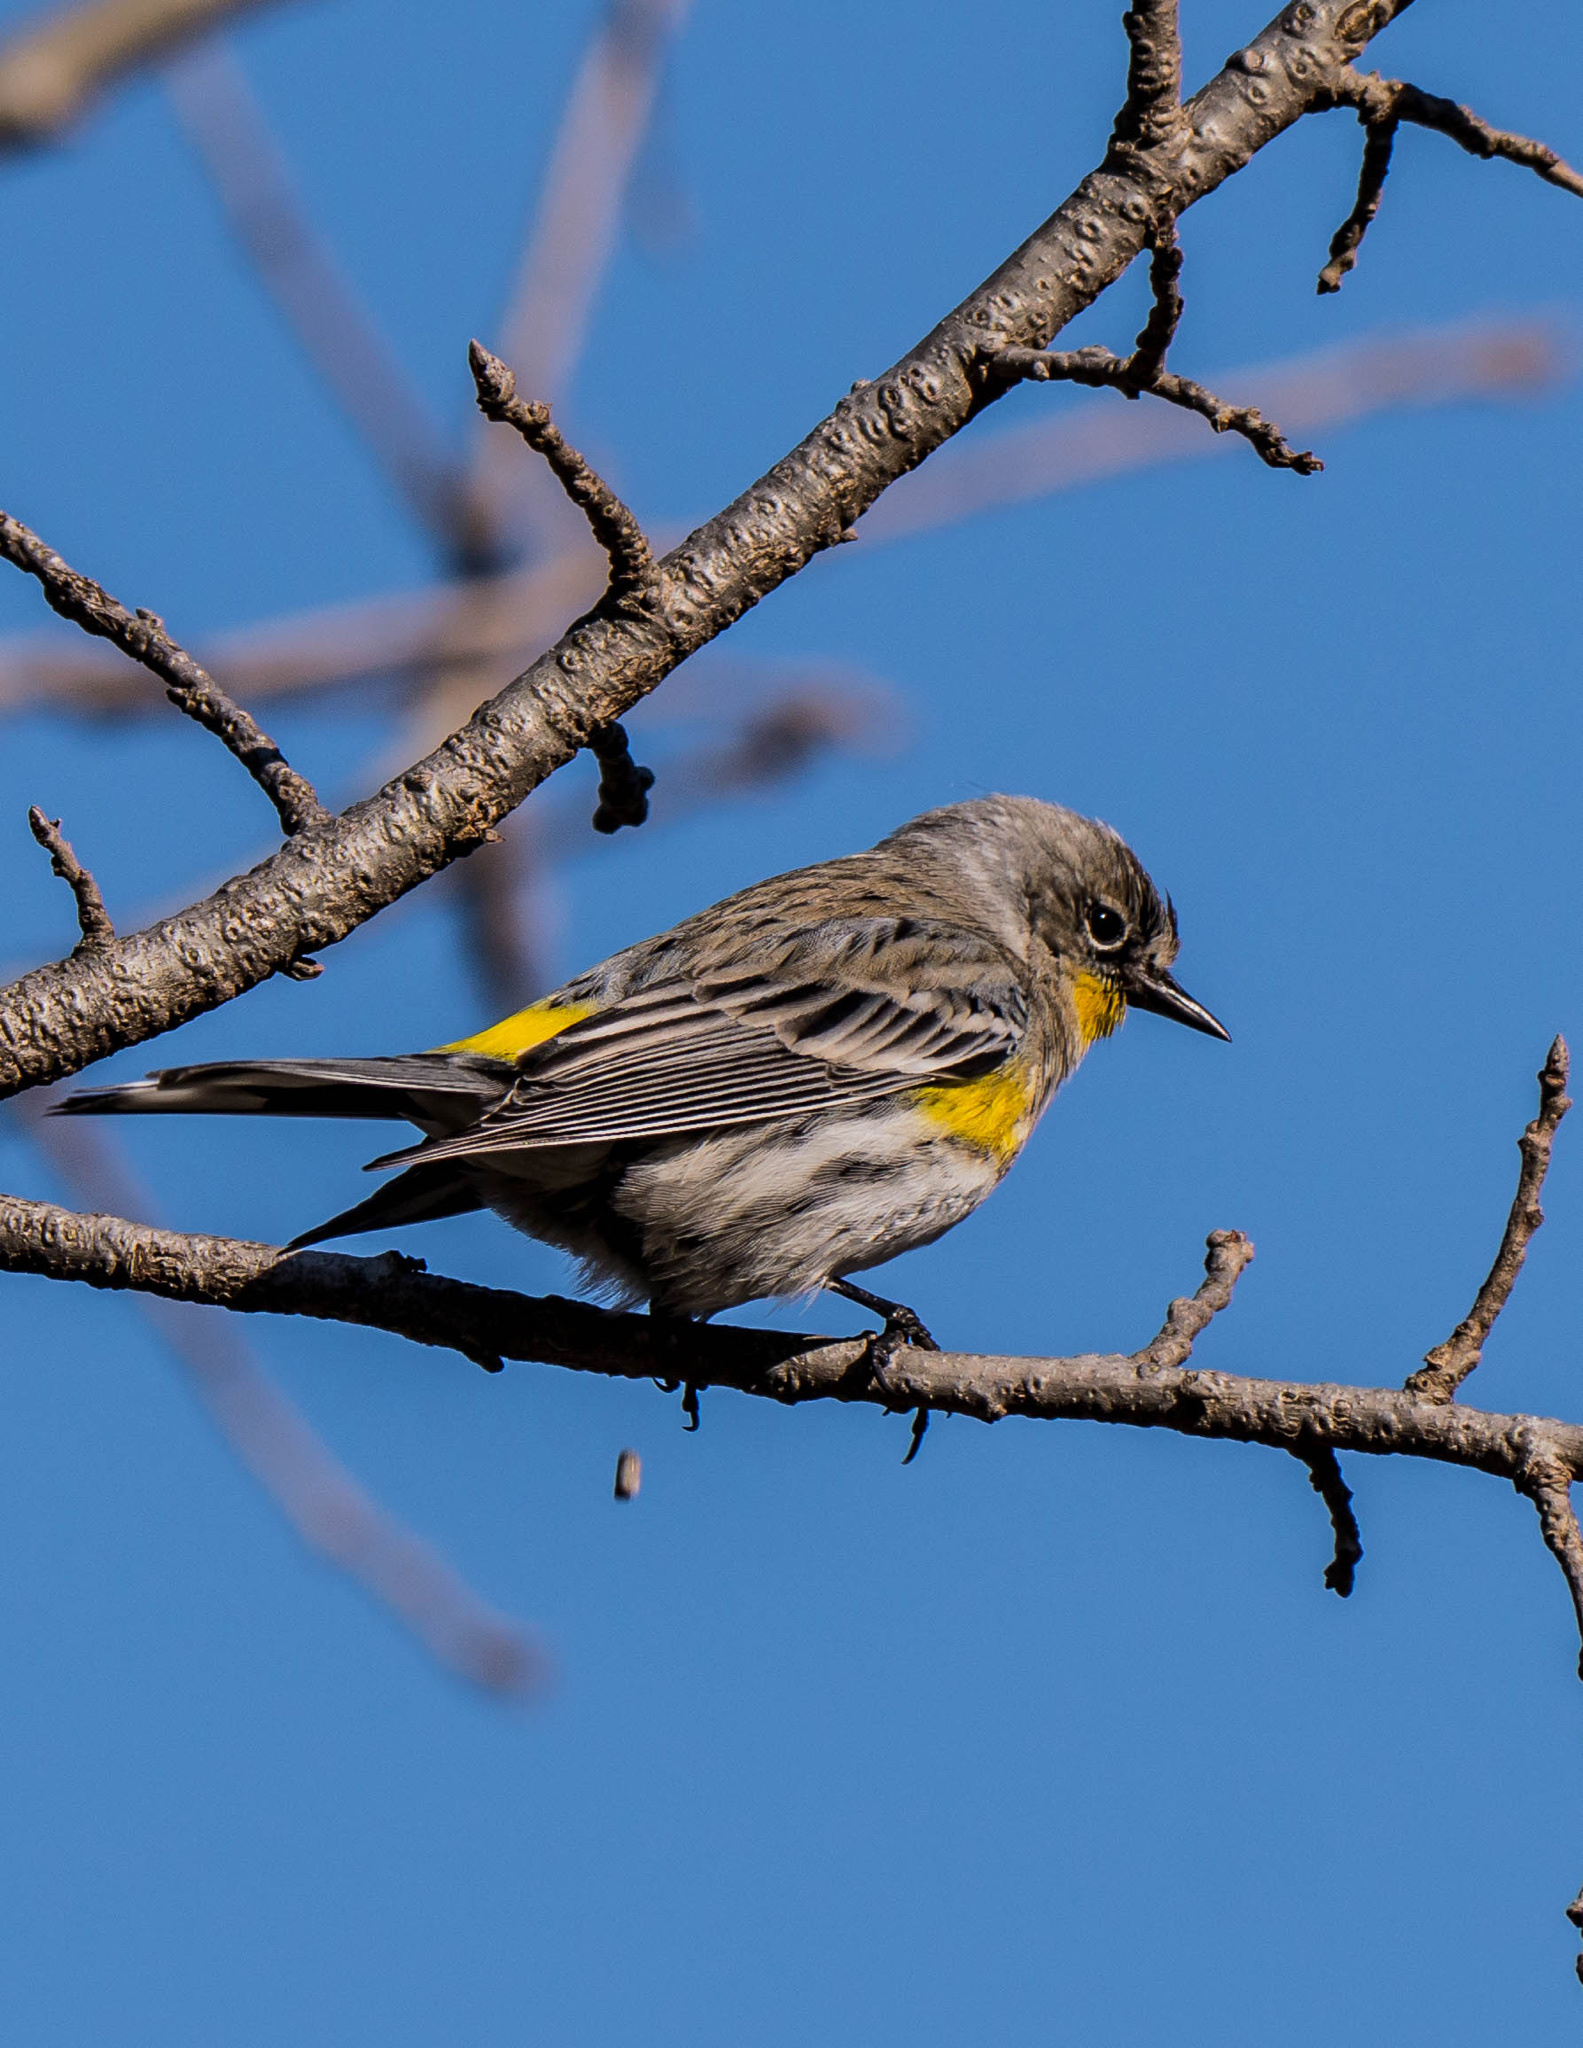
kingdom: Animalia
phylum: Chordata
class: Aves
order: Passeriformes
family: Parulidae
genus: Setophaga
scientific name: Setophaga auduboni
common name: Audubon's warbler
